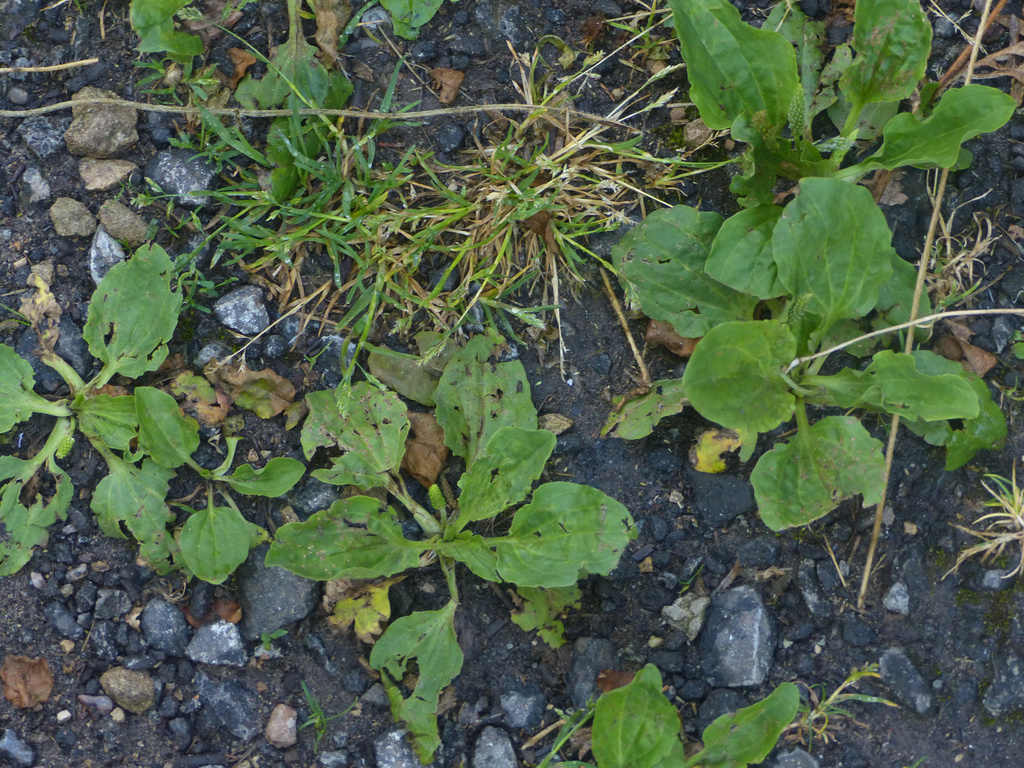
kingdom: Plantae
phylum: Tracheophyta
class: Magnoliopsida
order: Lamiales
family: Plantaginaceae
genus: Plantago
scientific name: Plantago major
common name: Common plantain
